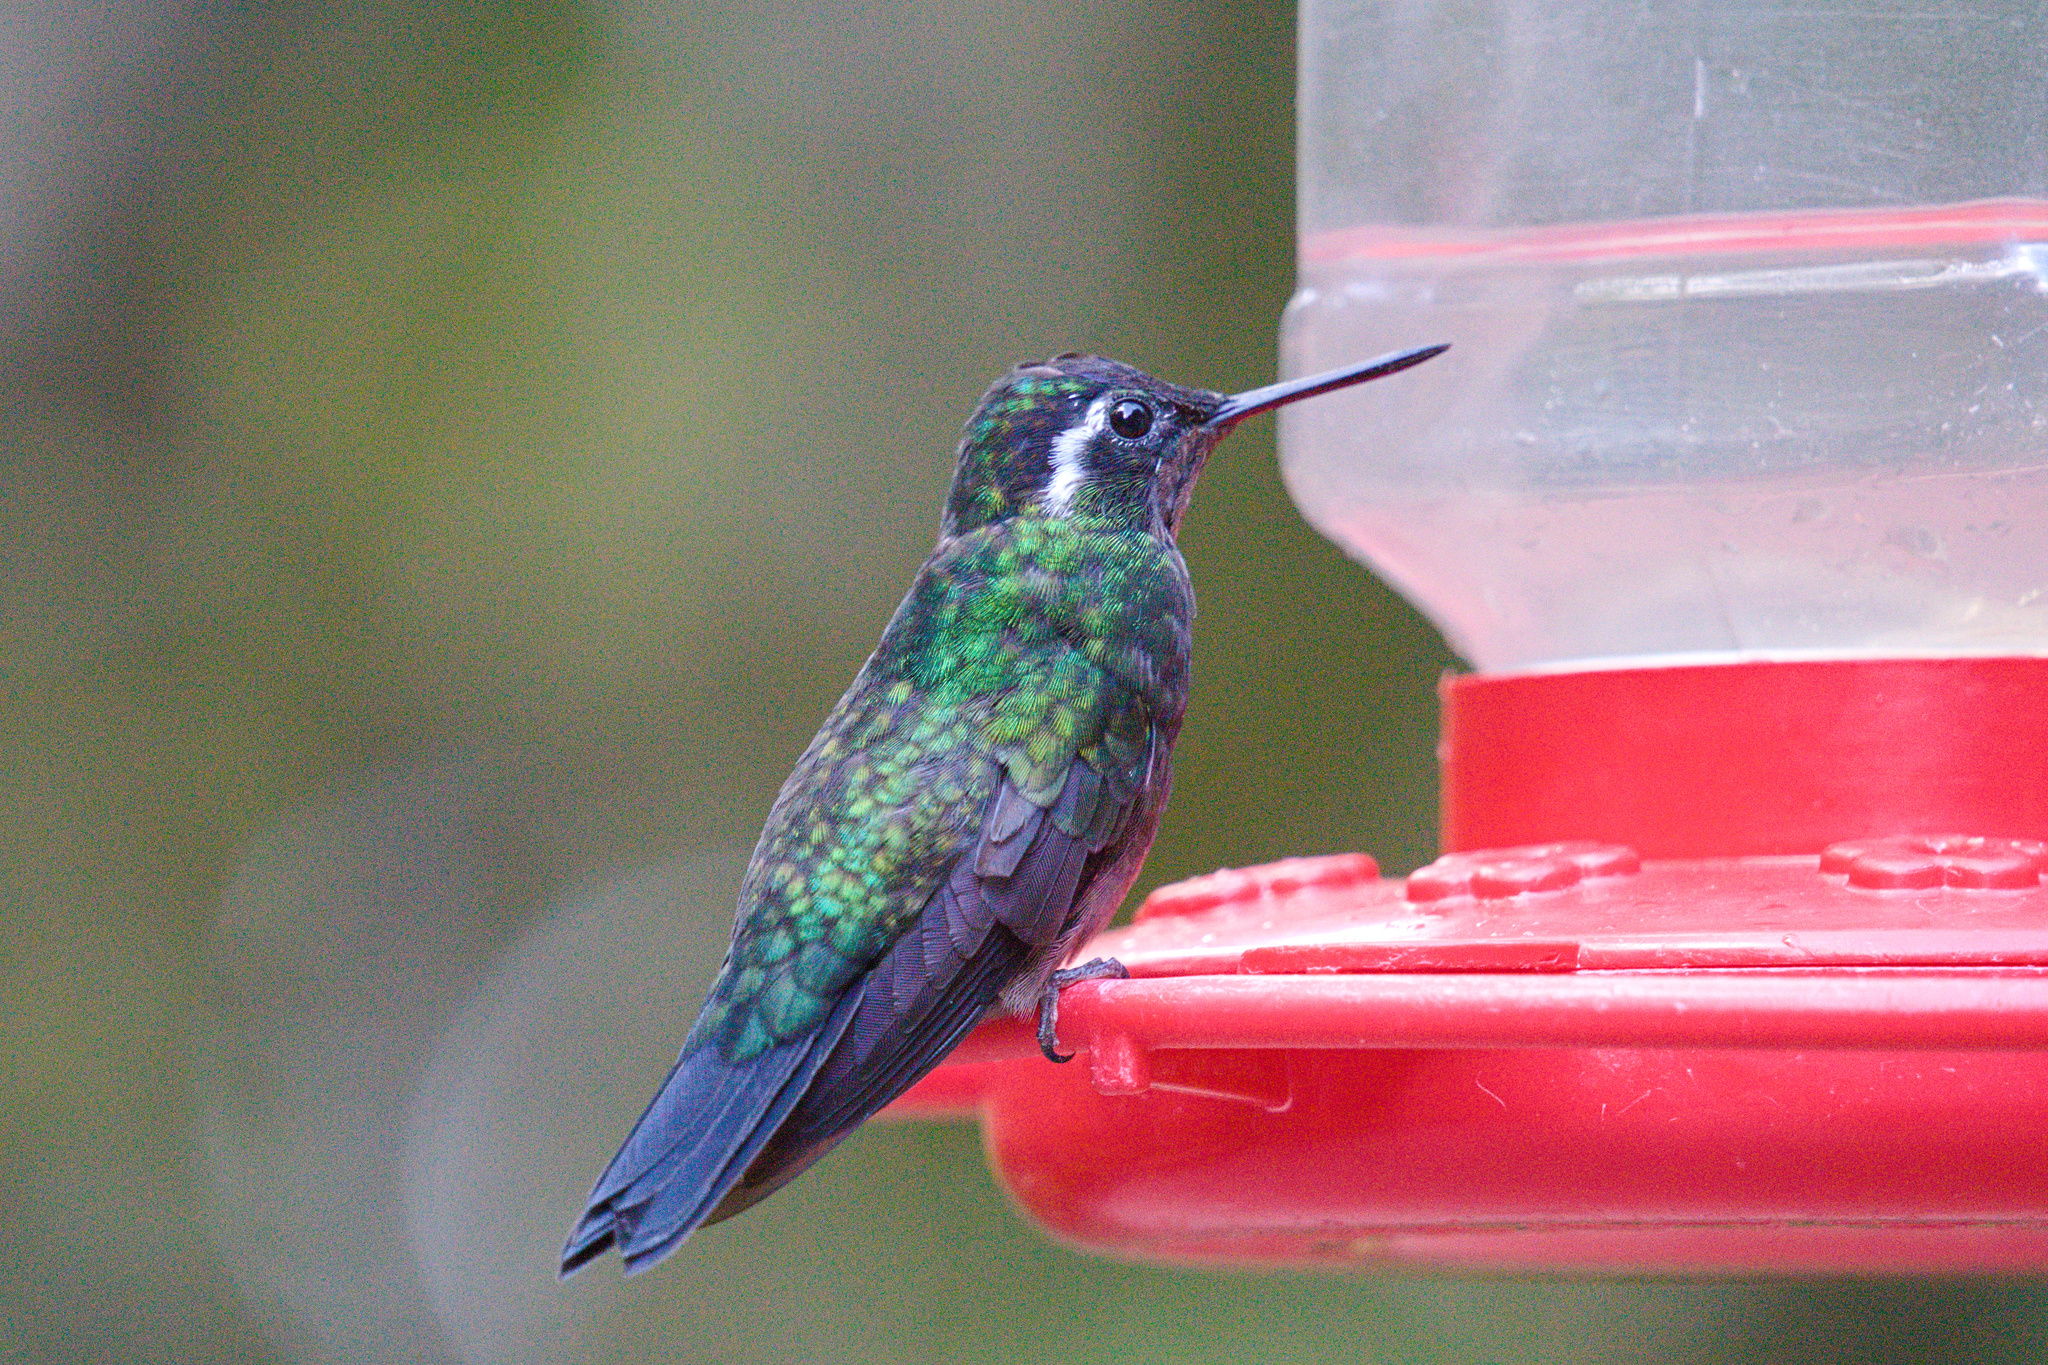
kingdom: Animalia
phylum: Chordata
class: Aves
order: Apodiformes
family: Trochilidae
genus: Lampornis
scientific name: Lampornis calolaemus
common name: Purple-throated mountain-gem
